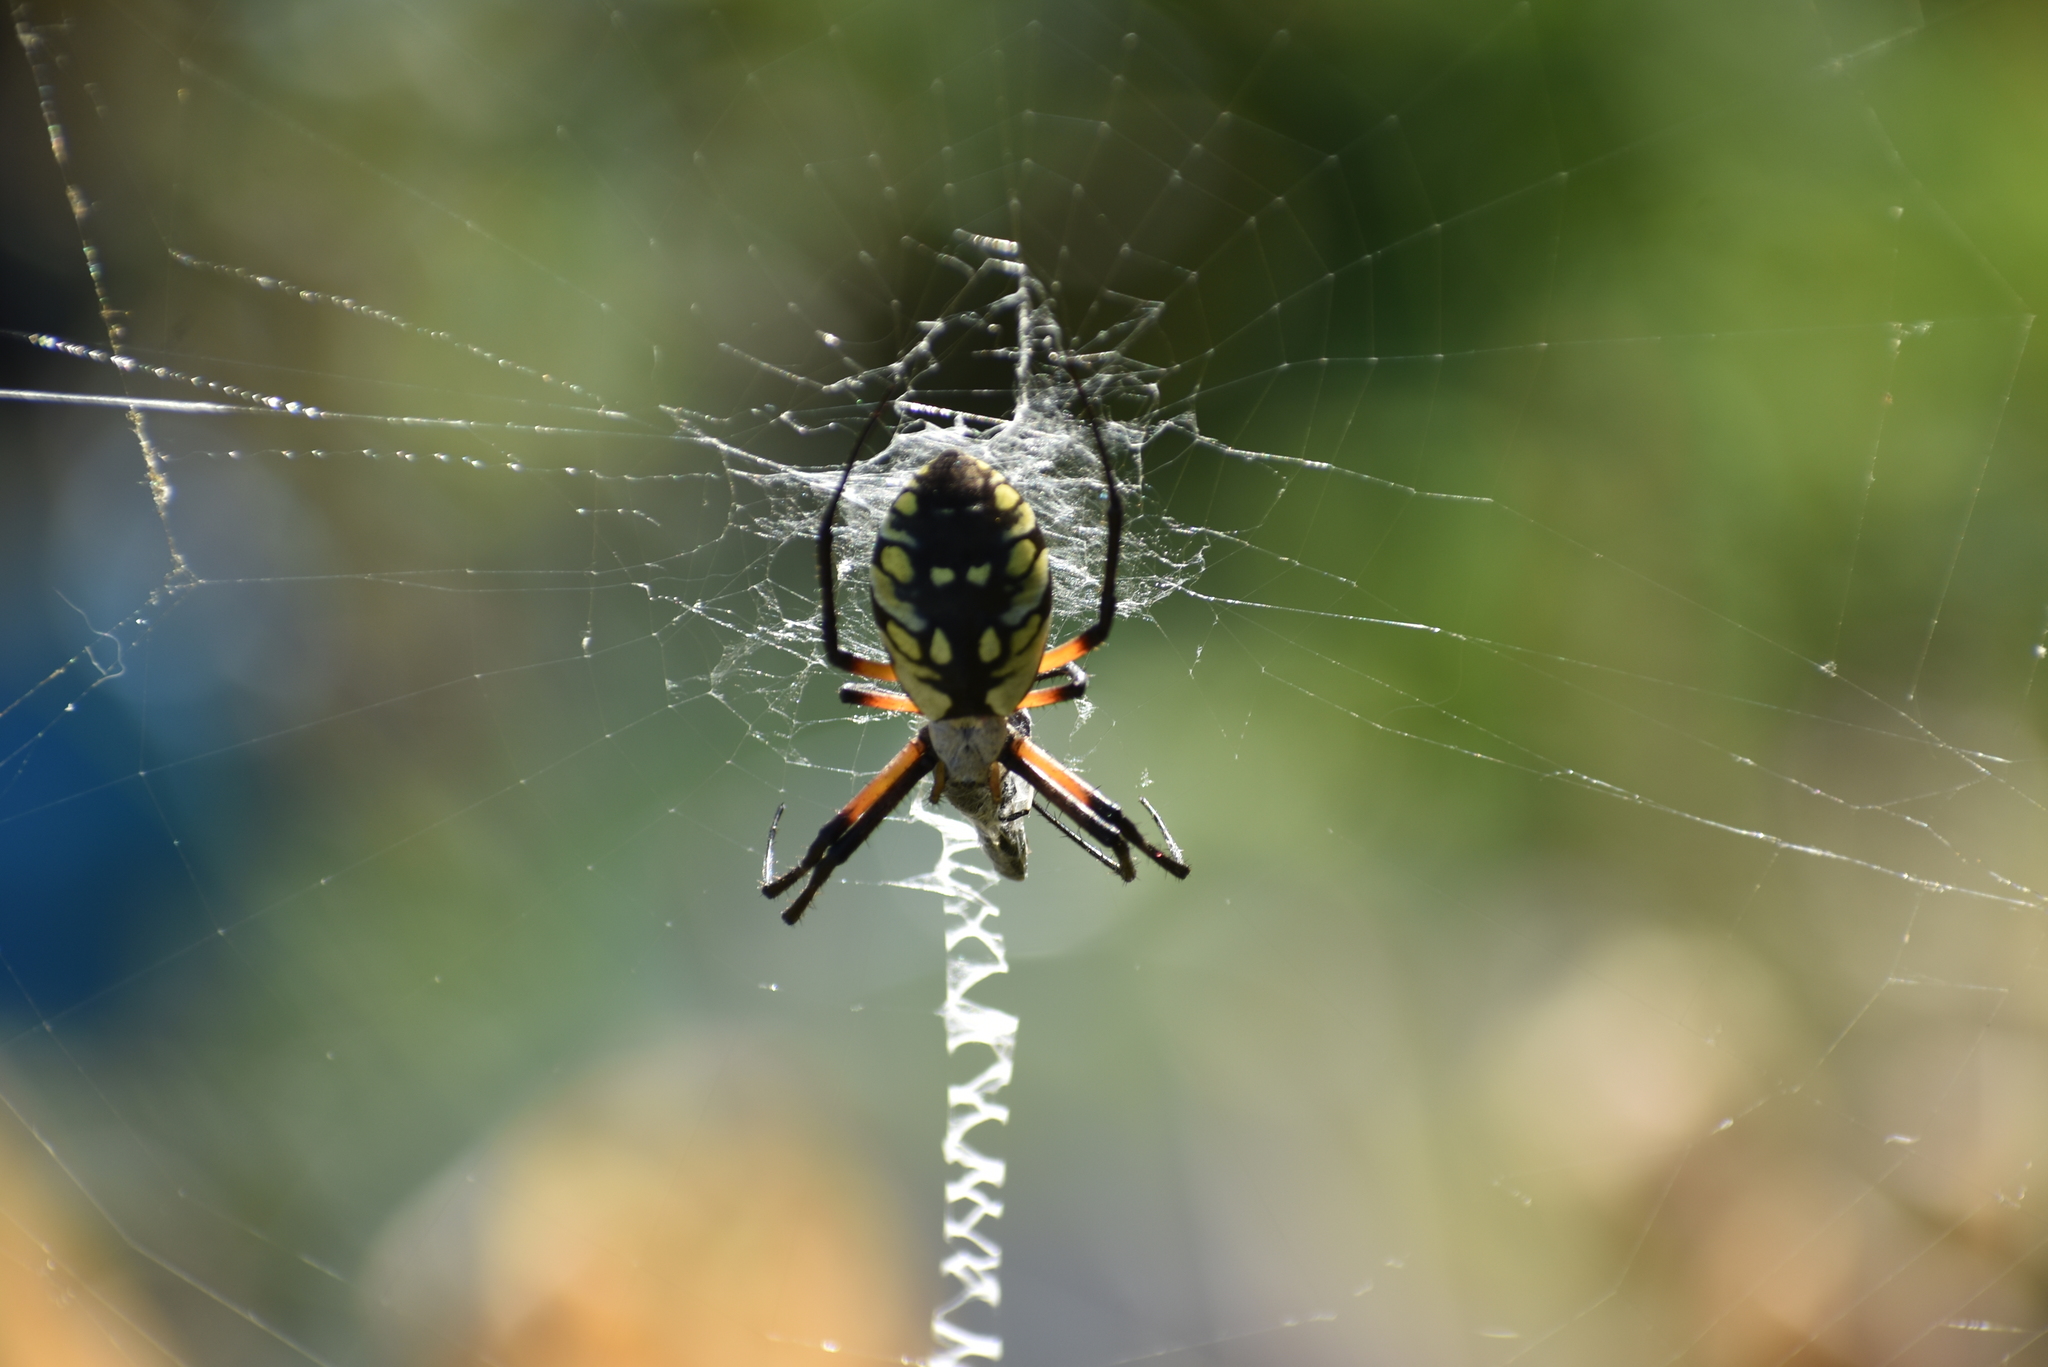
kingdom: Animalia
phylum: Arthropoda
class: Arachnida
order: Araneae
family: Araneidae
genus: Argiope
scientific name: Argiope aurantia
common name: Orb weavers
